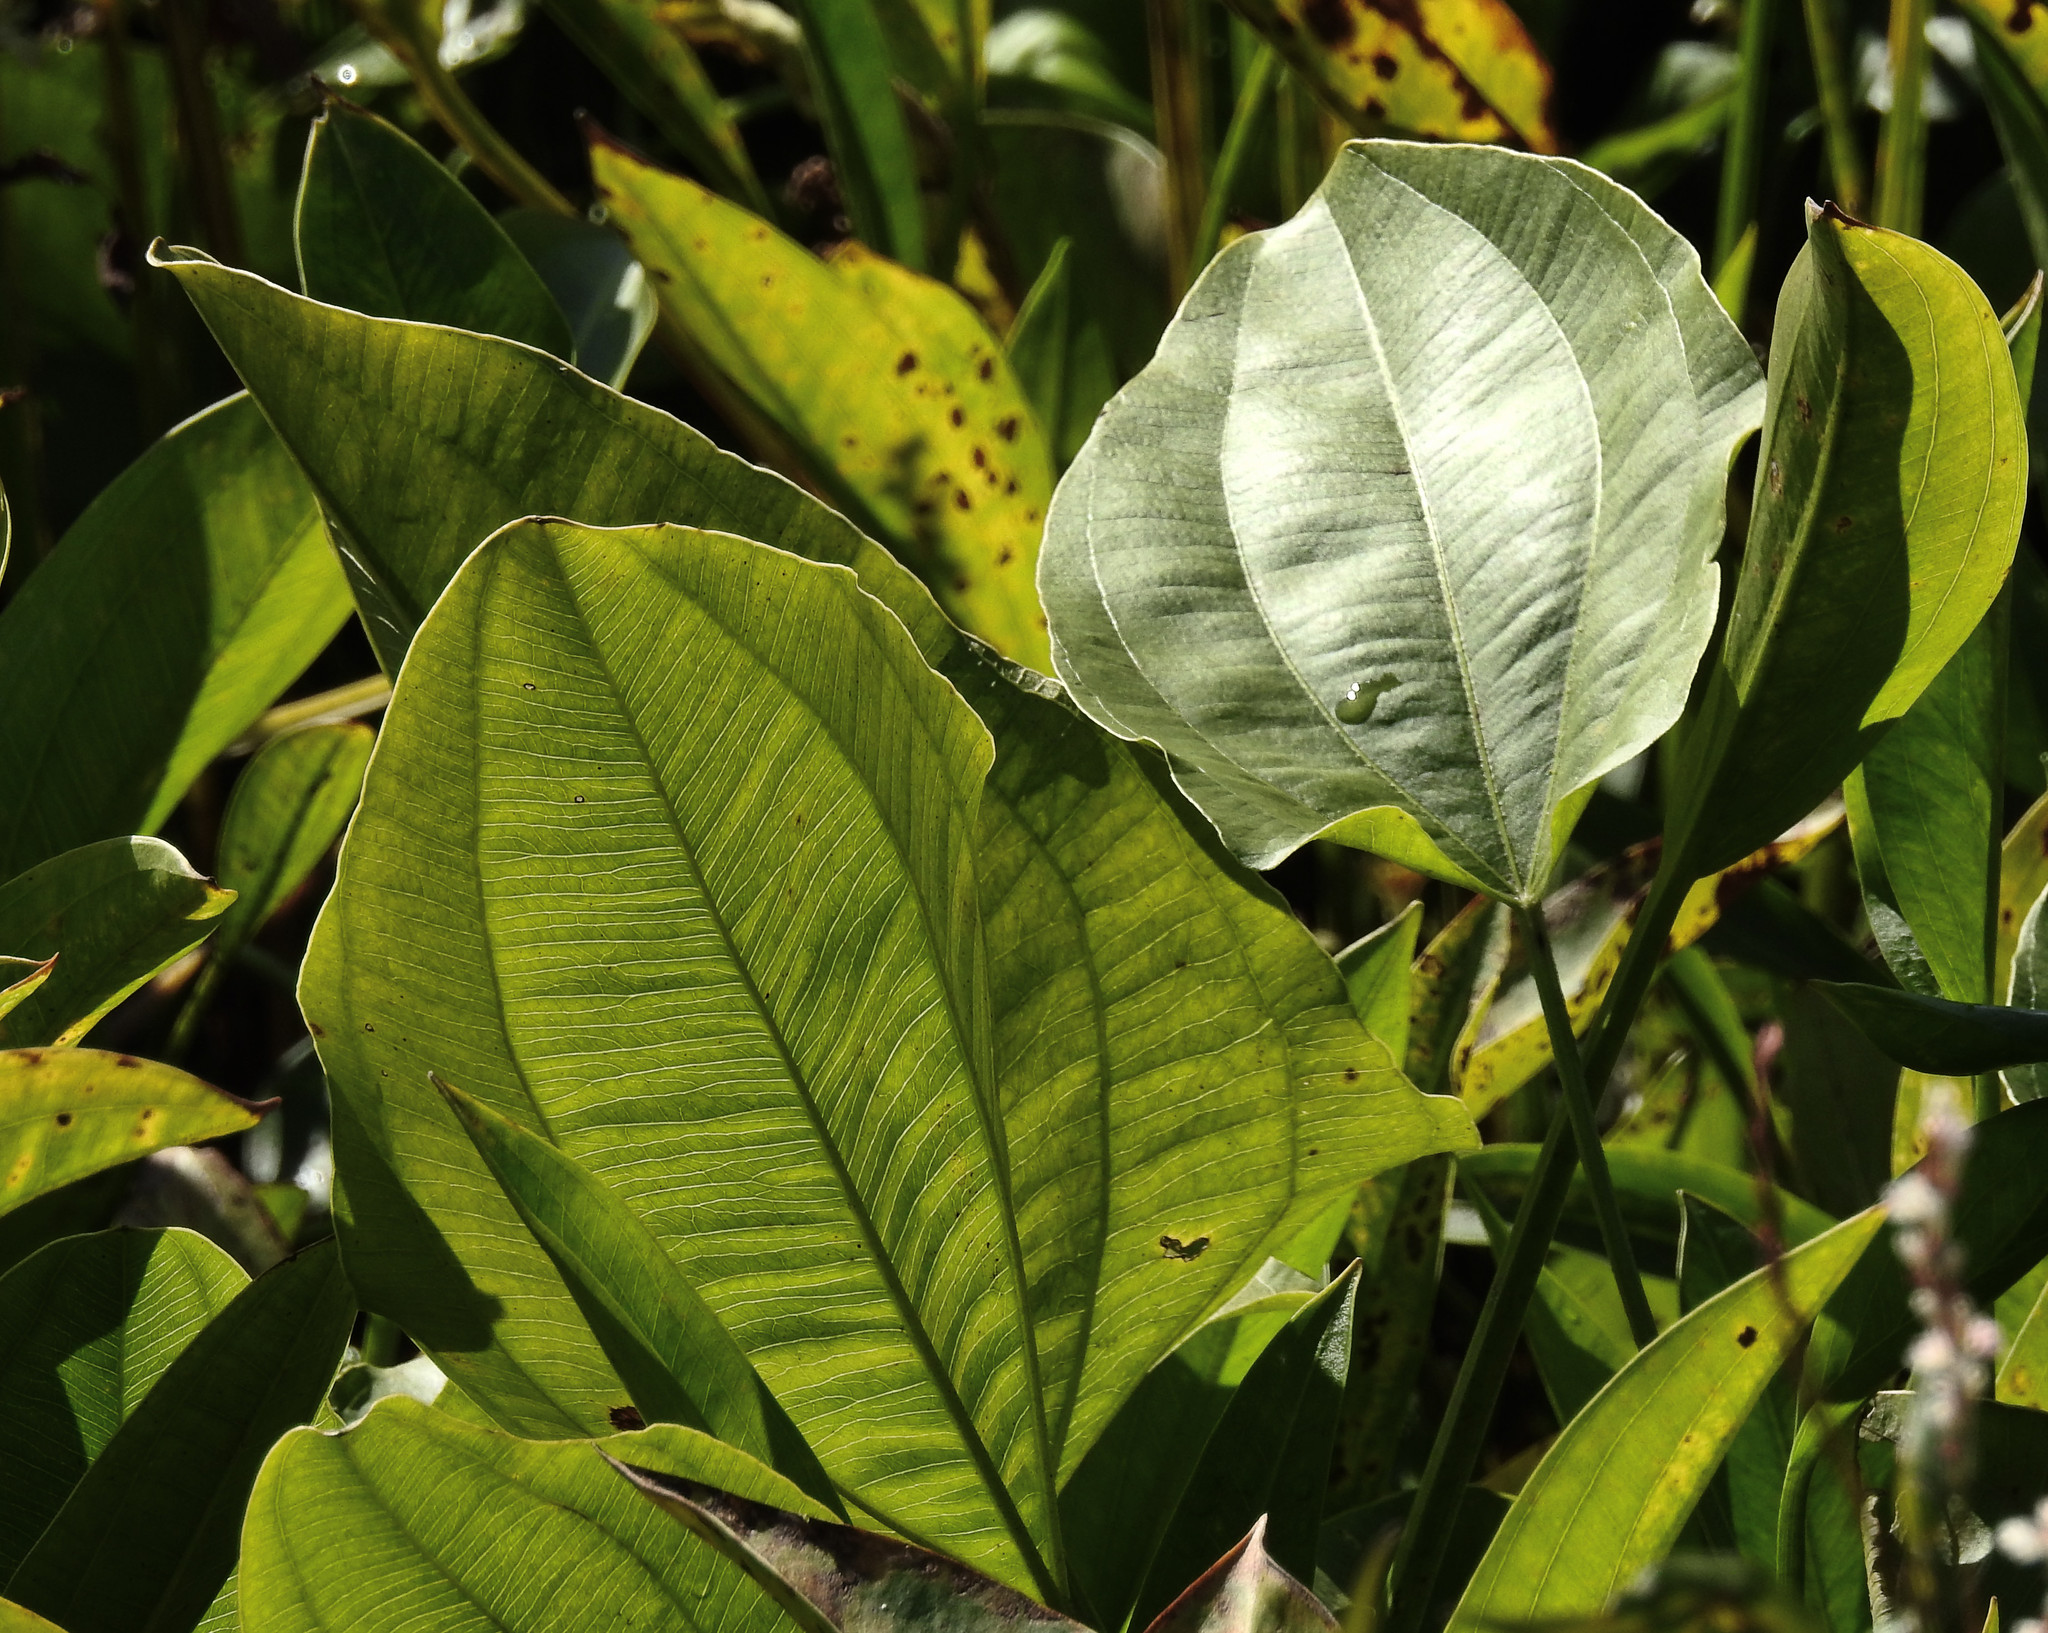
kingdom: Plantae
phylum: Tracheophyta
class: Liliopsida
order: Alismatales
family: Alismataceae
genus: Aquarius
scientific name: Aquarius cordifolius
